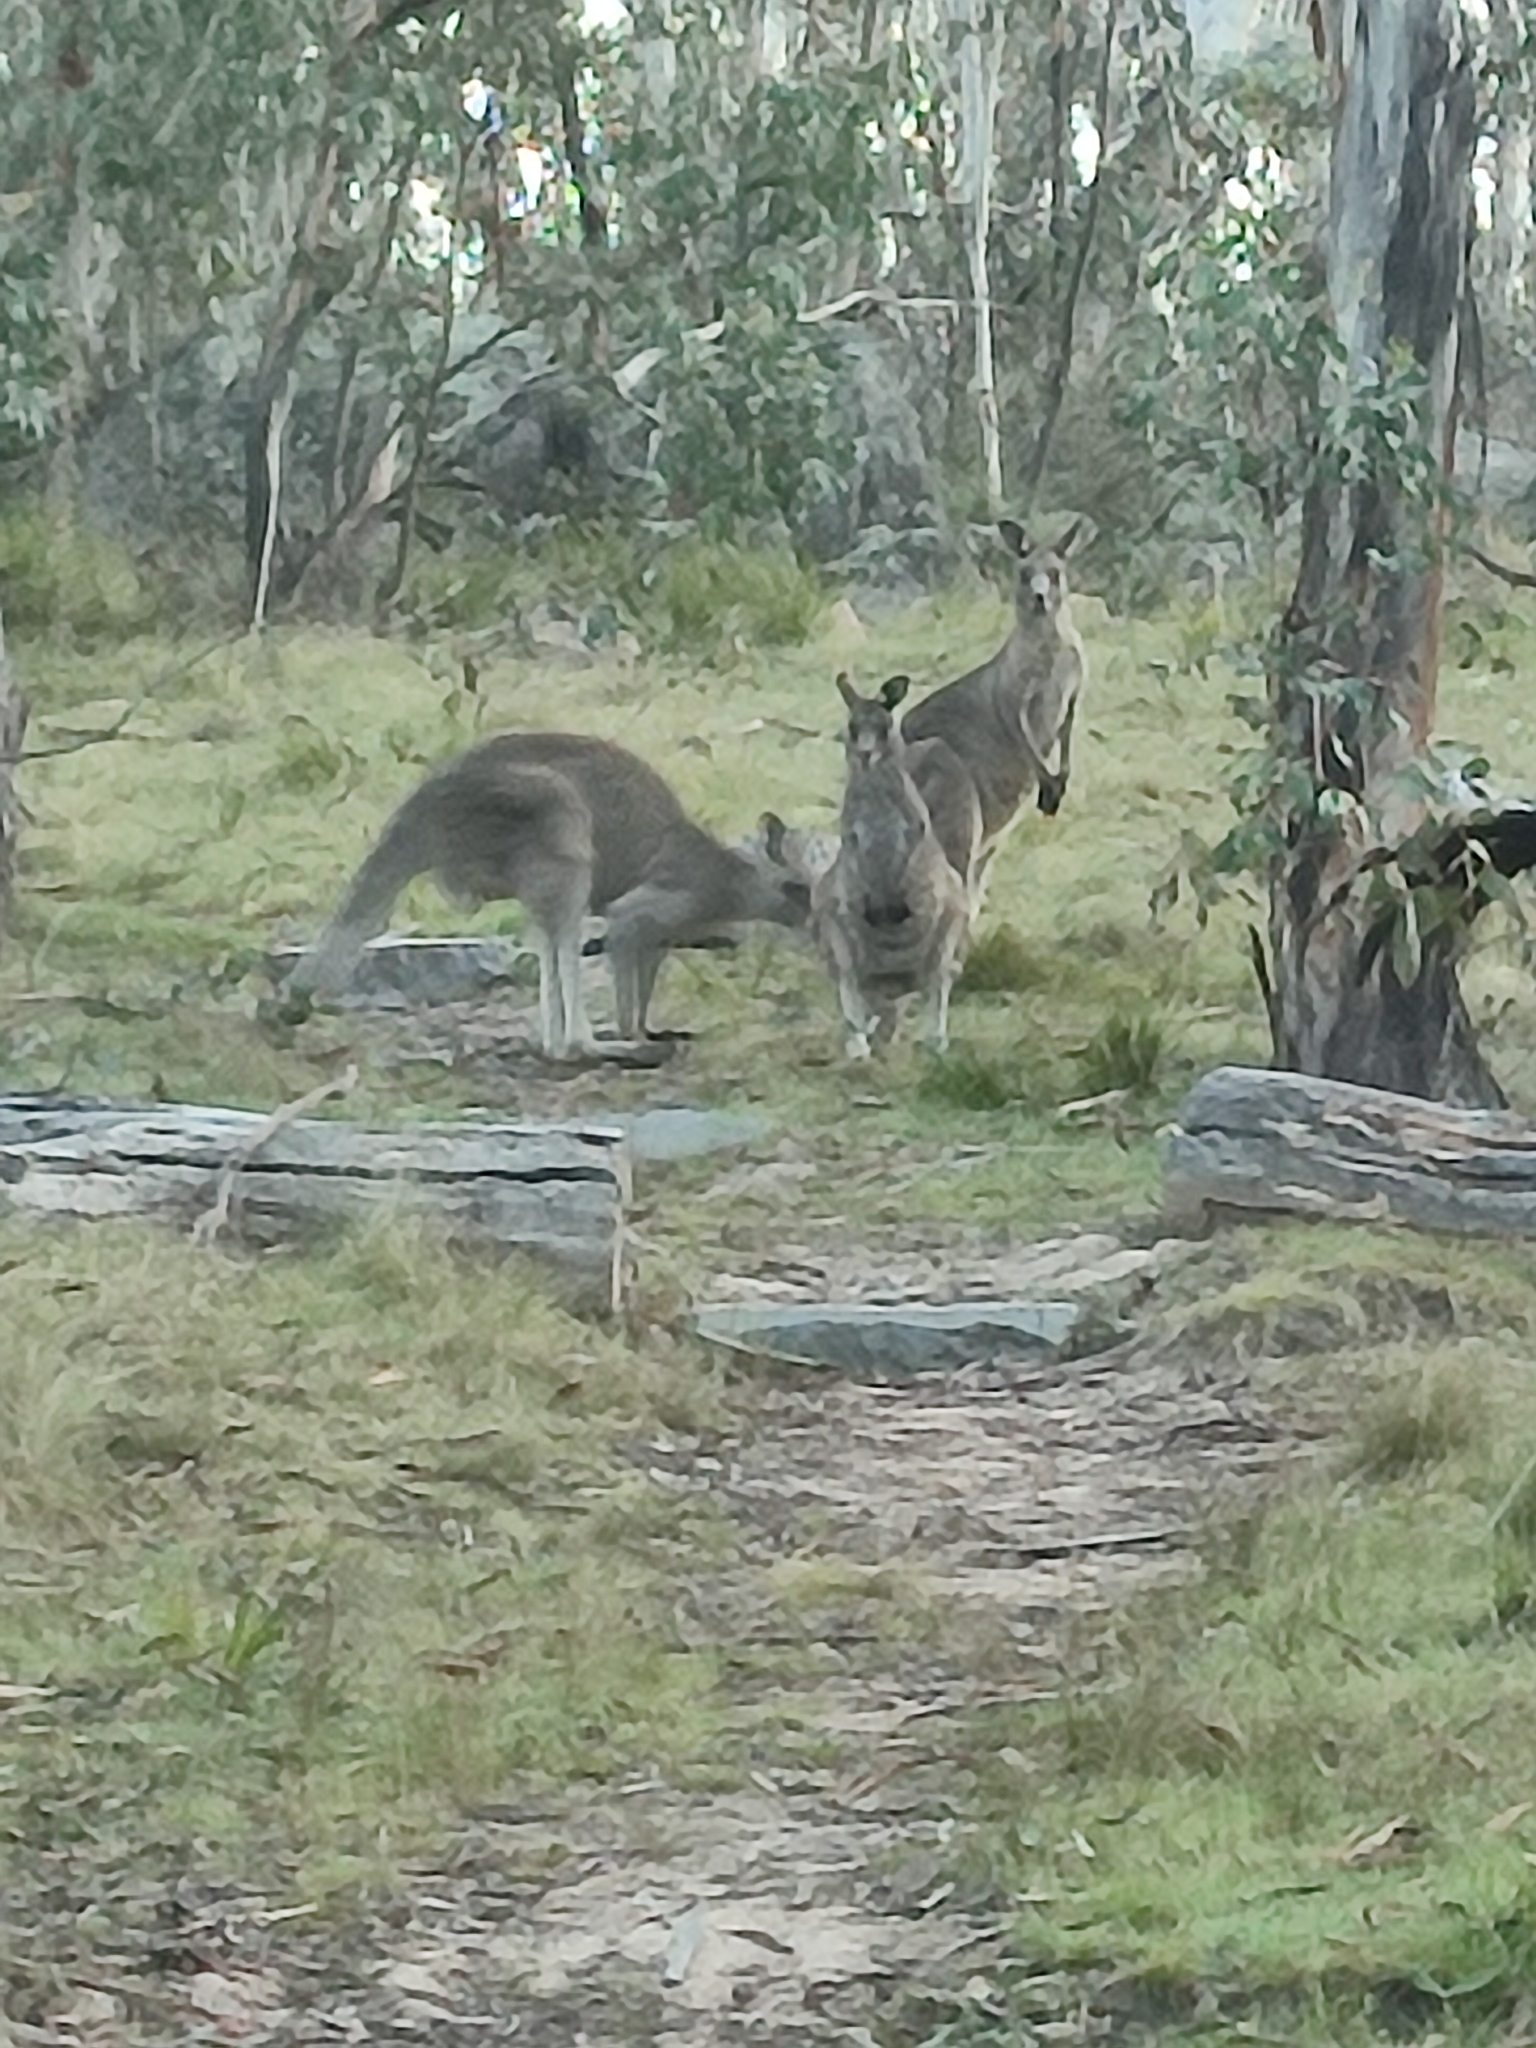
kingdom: Animalia
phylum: Chordata
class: Mammalia
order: Diprotodontia
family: Macropodidae
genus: Macropus
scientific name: Macropus giganteus
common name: Eastern grey kangaroo
